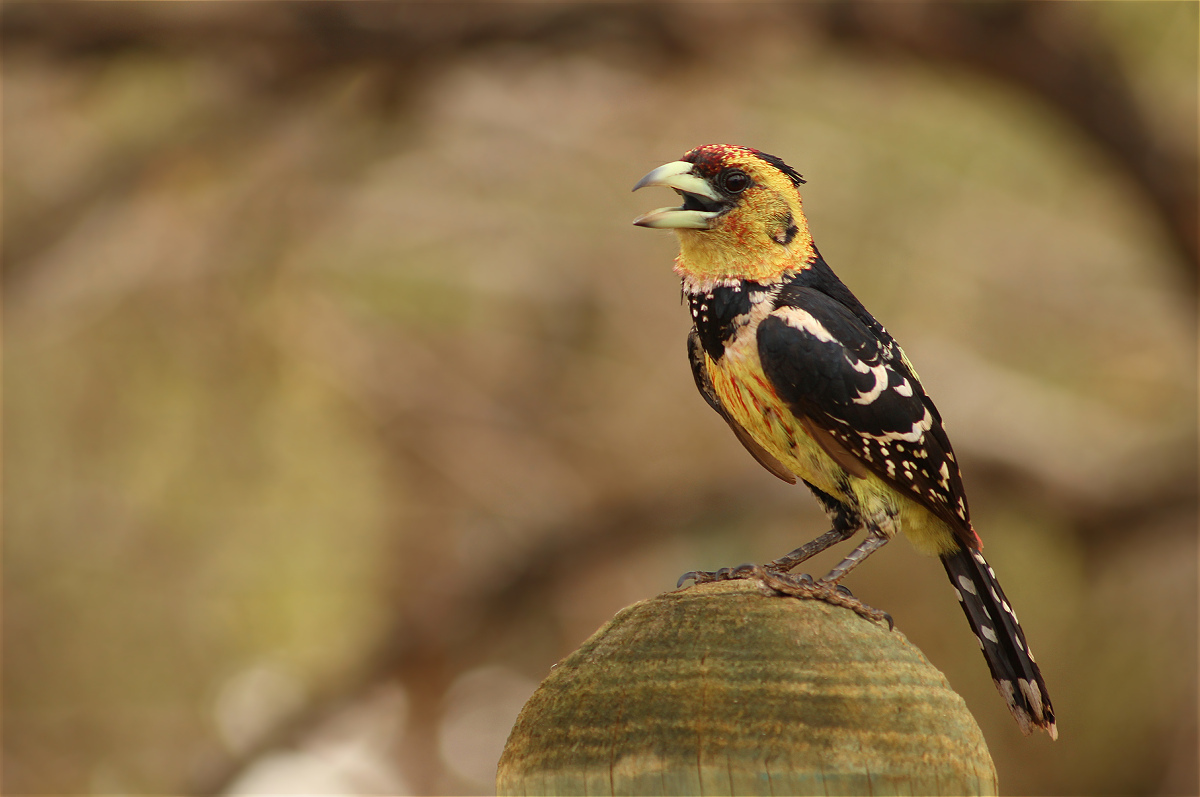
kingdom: Animalia
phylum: Chordata
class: Aves
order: Piciformes
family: Lybiidae
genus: Trachyphonus
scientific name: Trachyphonus vaillantii
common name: Crested barbet
